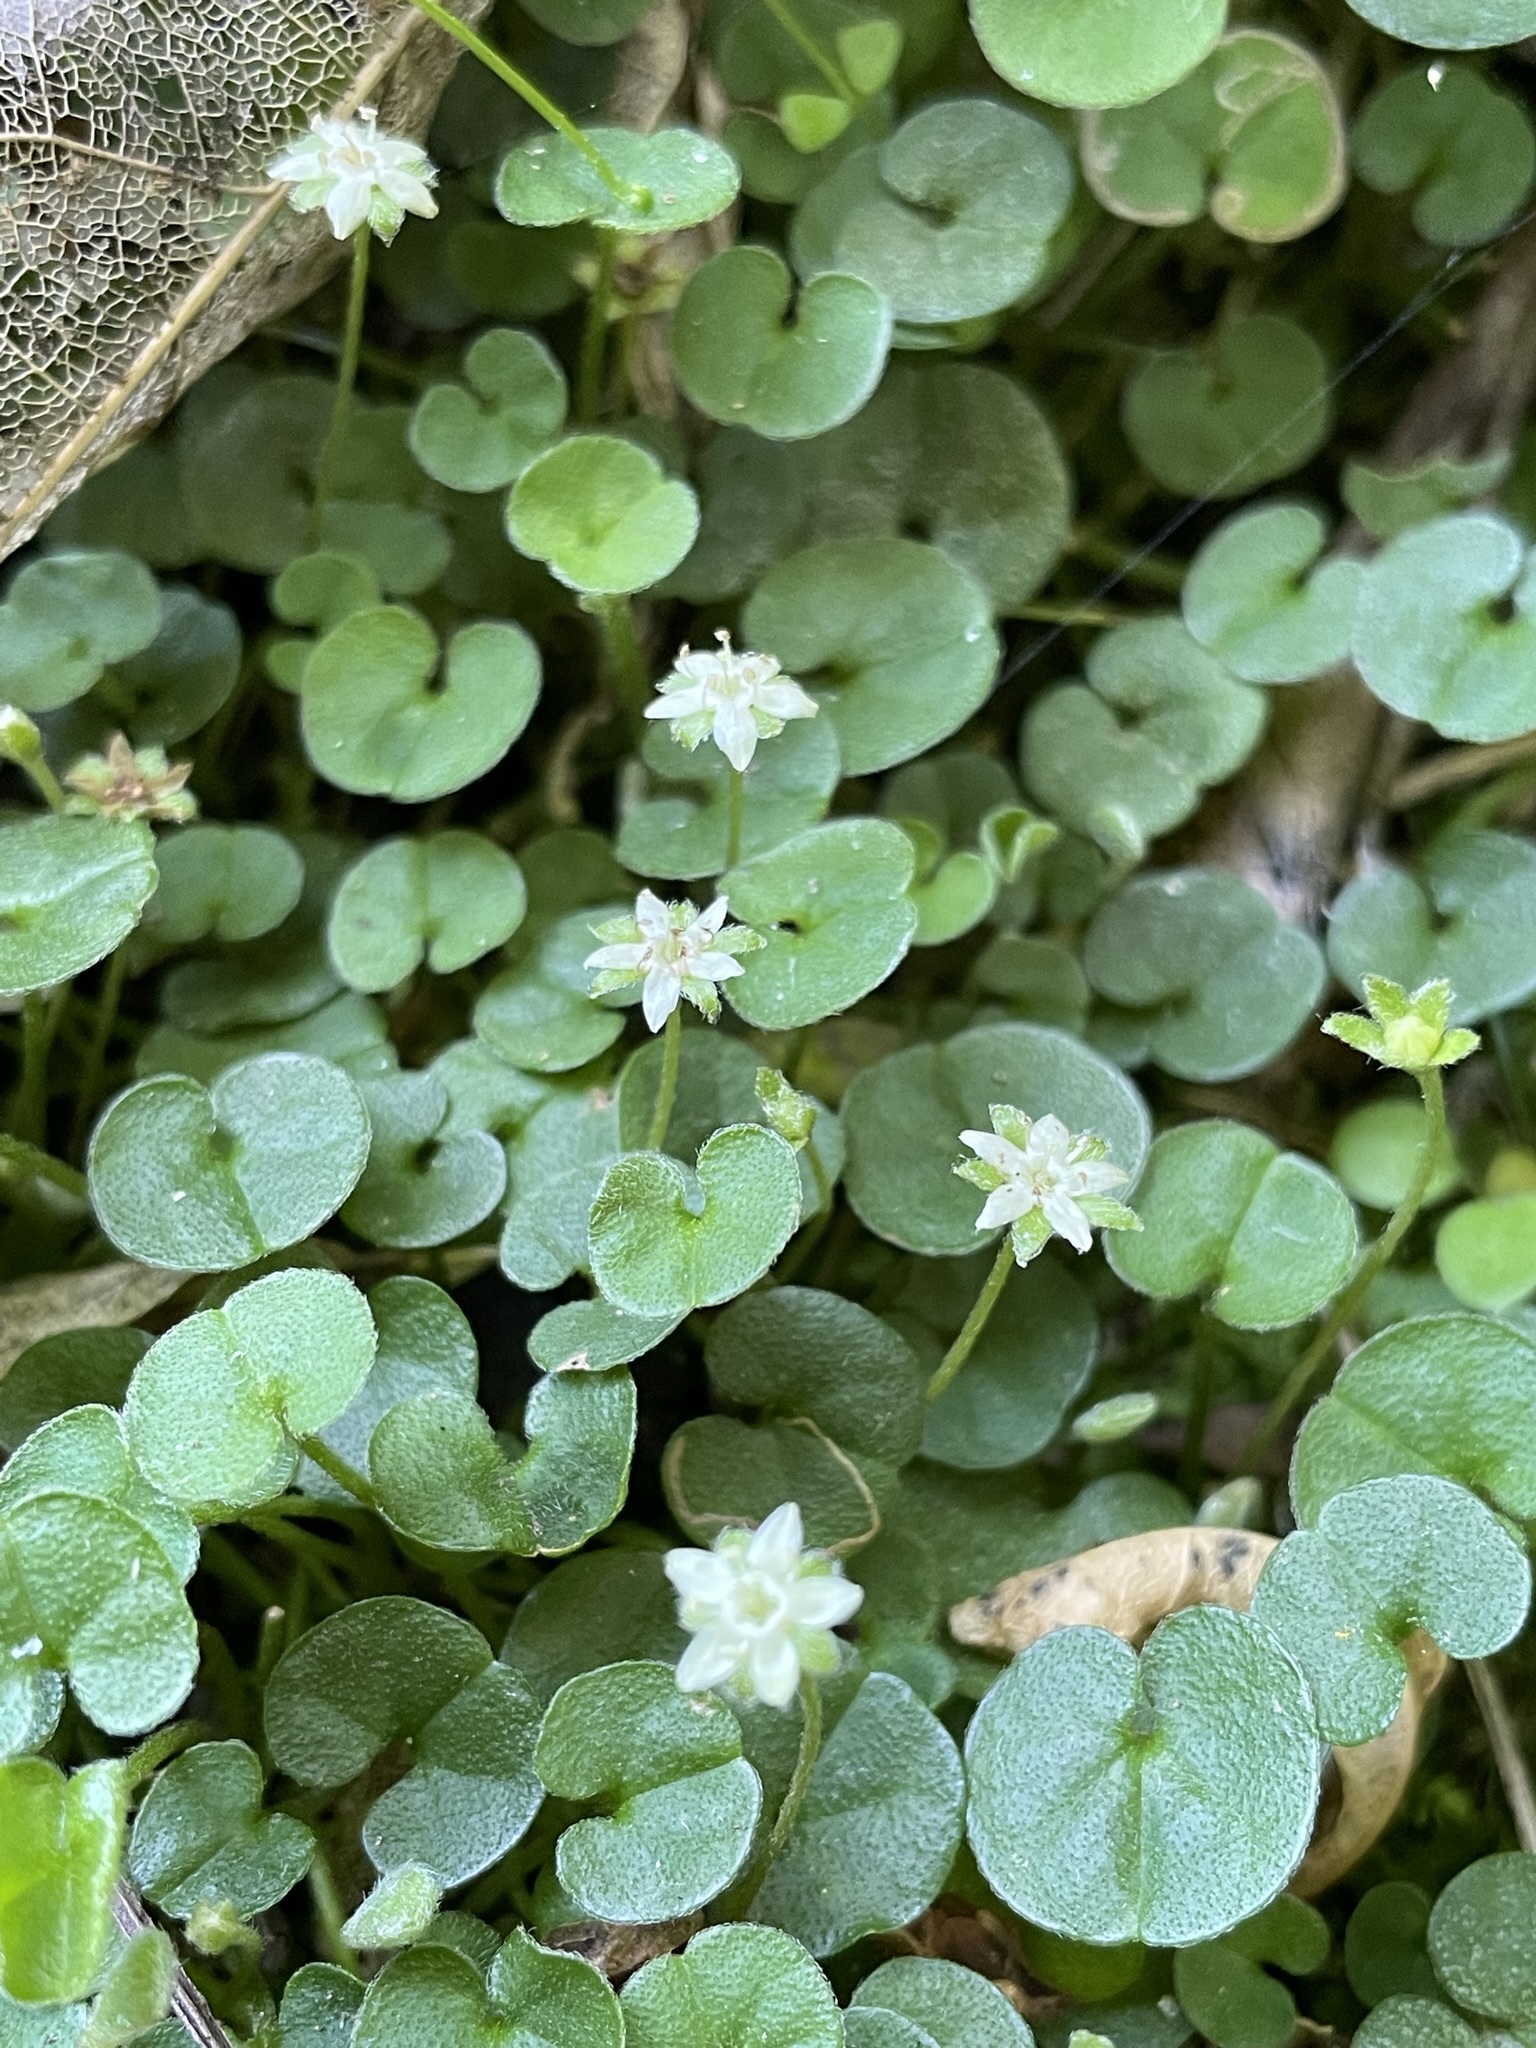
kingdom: Plantae
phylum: Tracheophyta
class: Magnoliopsida
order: Solanales
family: Convolvulaceae
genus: Dichondra
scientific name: Dichondra repens
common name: Kidneyweed
